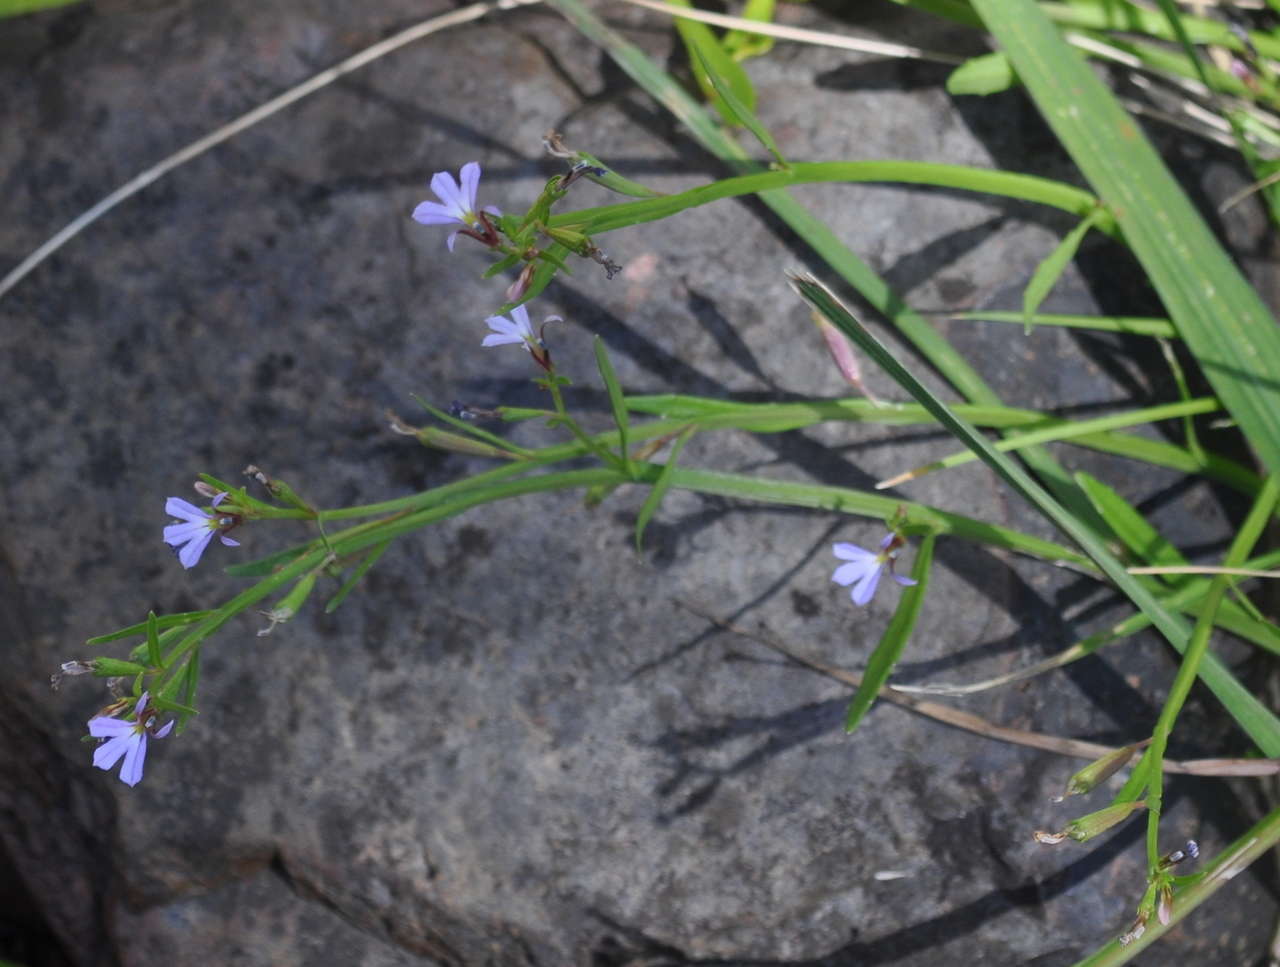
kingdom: Plantae
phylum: Tracheophyta
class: Magnoliopsida
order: Asterales
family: Campanulaceae
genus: Lobelia
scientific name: Lobelia anceps
